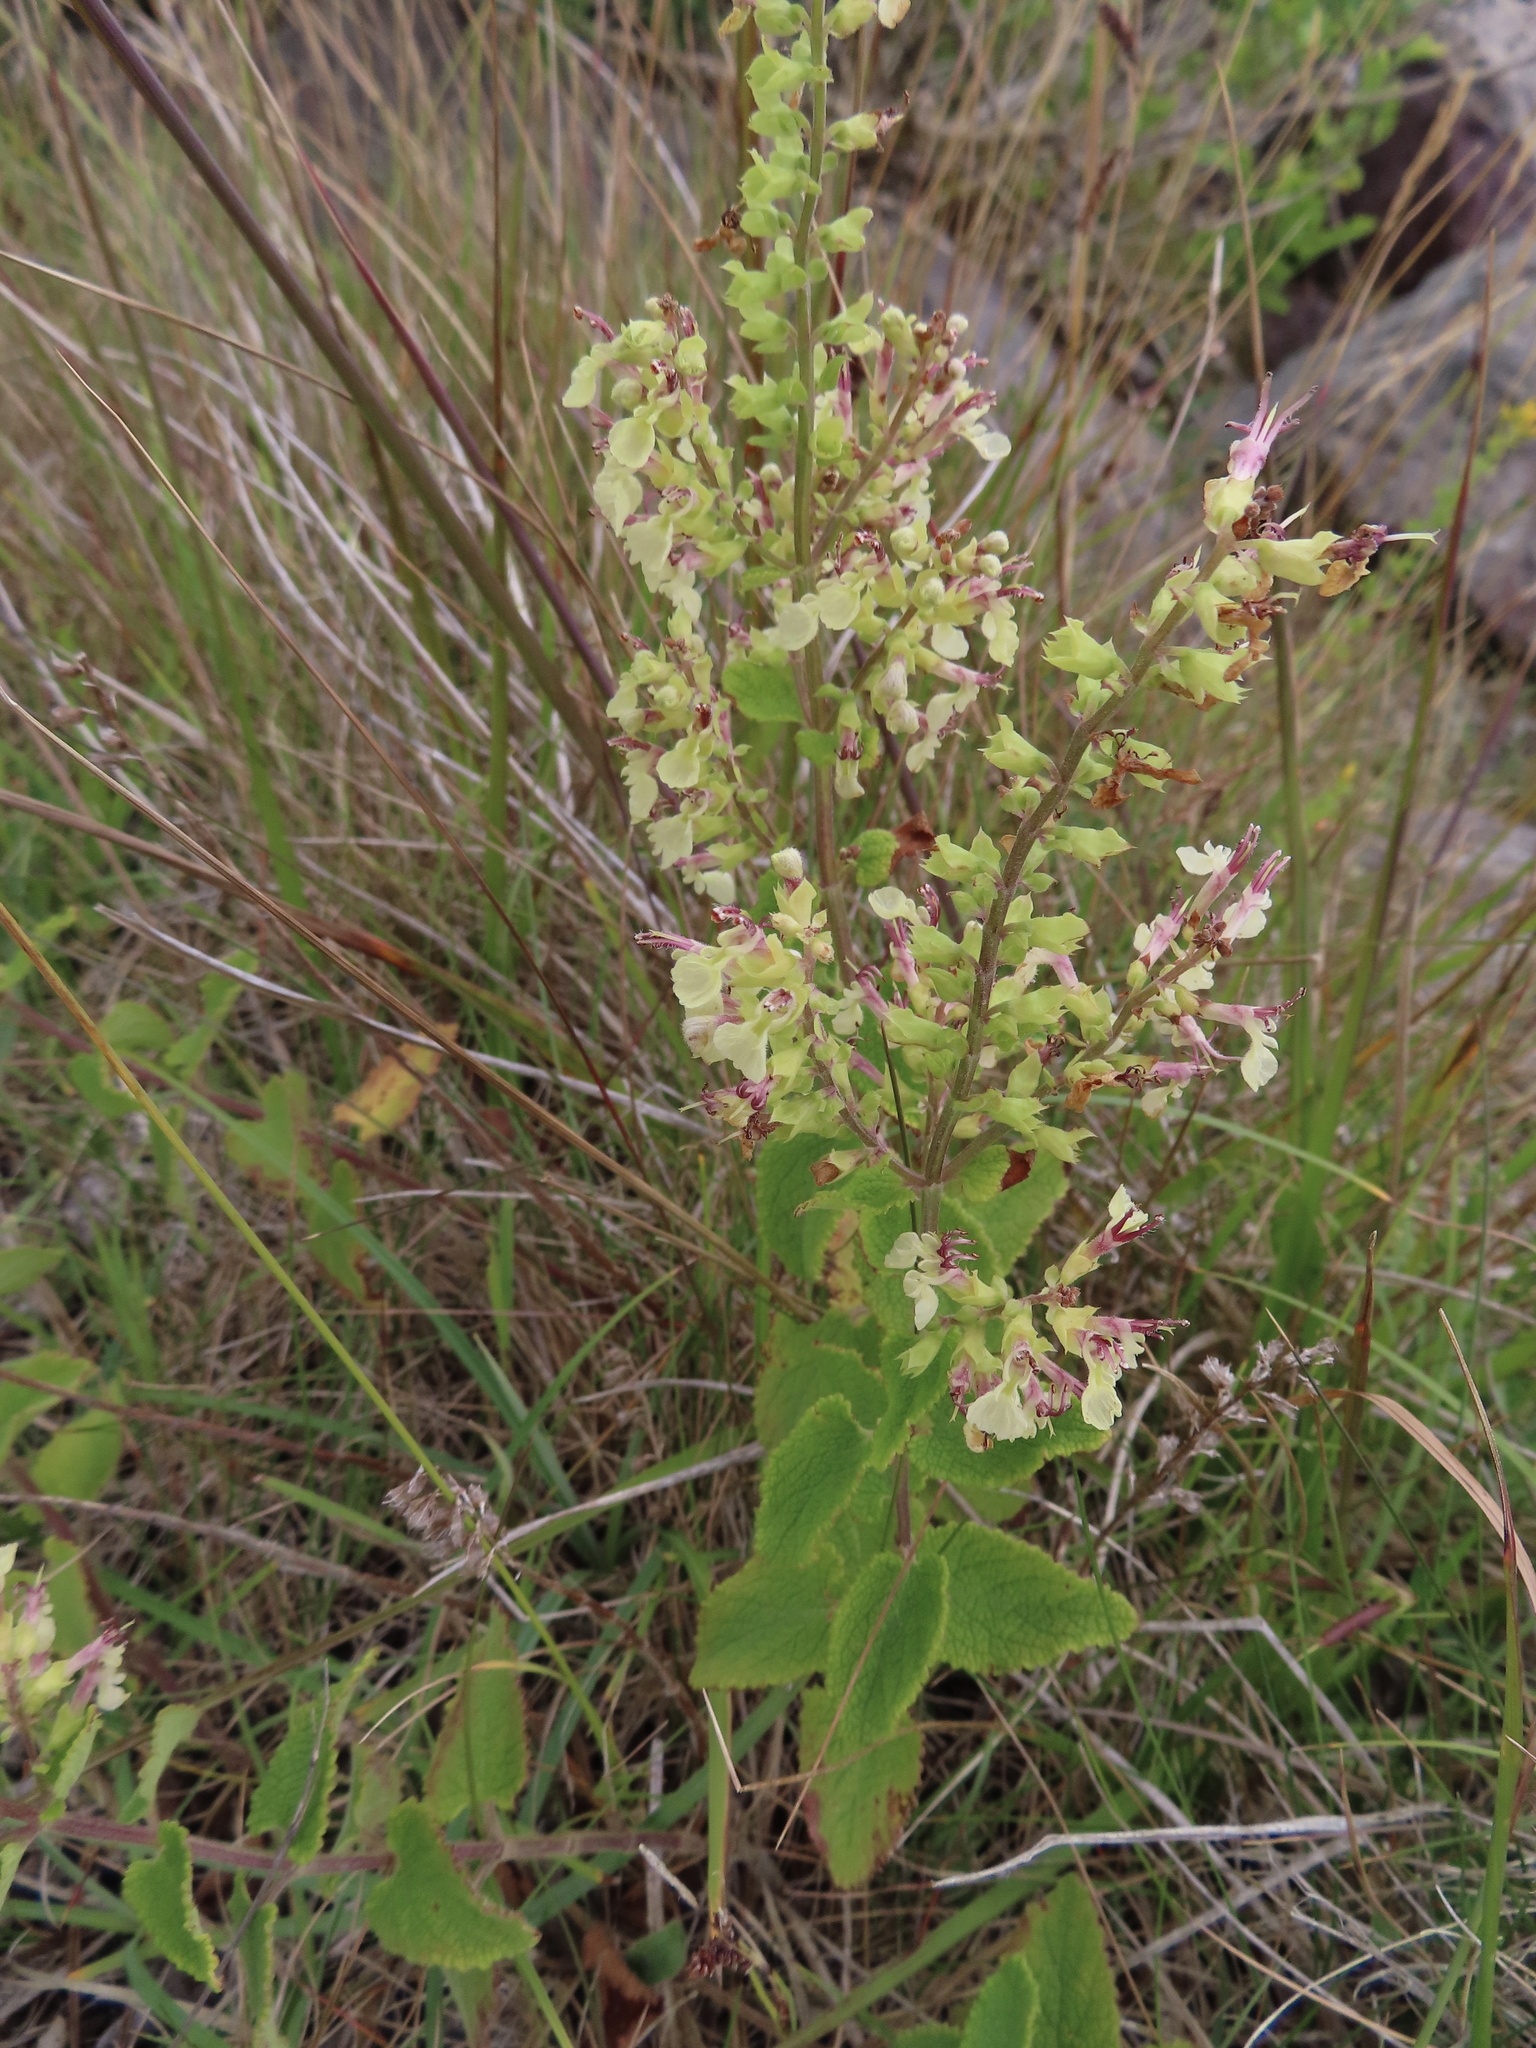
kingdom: Plantae
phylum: Tracheophyta
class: Magnoliopsida
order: Lamiales
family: Lamiaceae
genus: Teucrium
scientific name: Teucrium scorodonia
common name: Woodland germander
